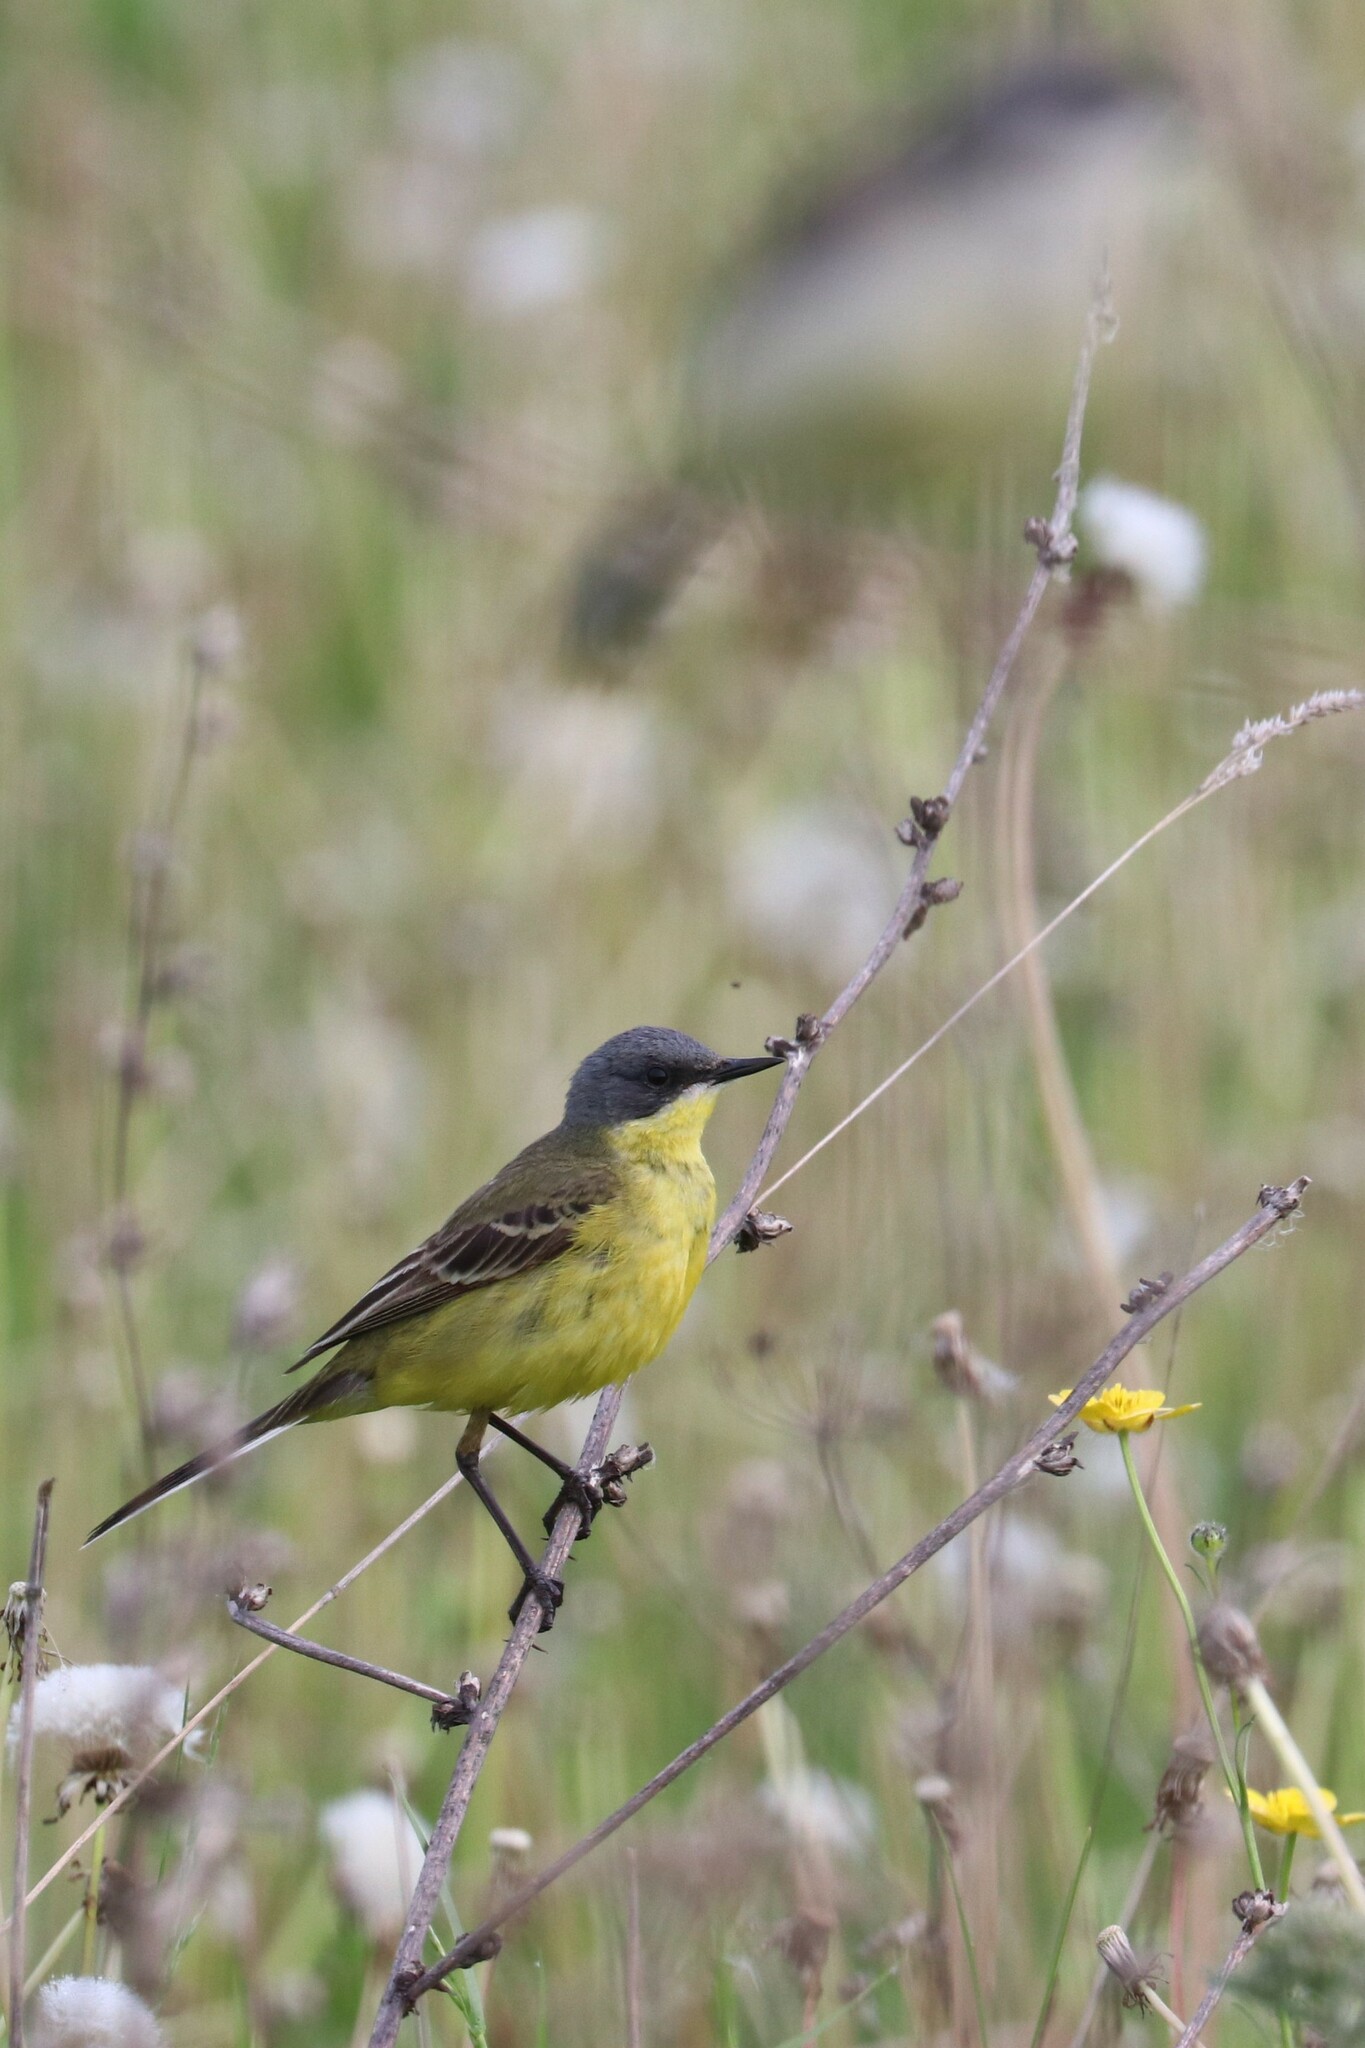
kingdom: Animalia
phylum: Chordata
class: Aves
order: Passeriformes
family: Motacillidae
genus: Motacilla
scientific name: Motacilla flava
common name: Western yellow wagtail
